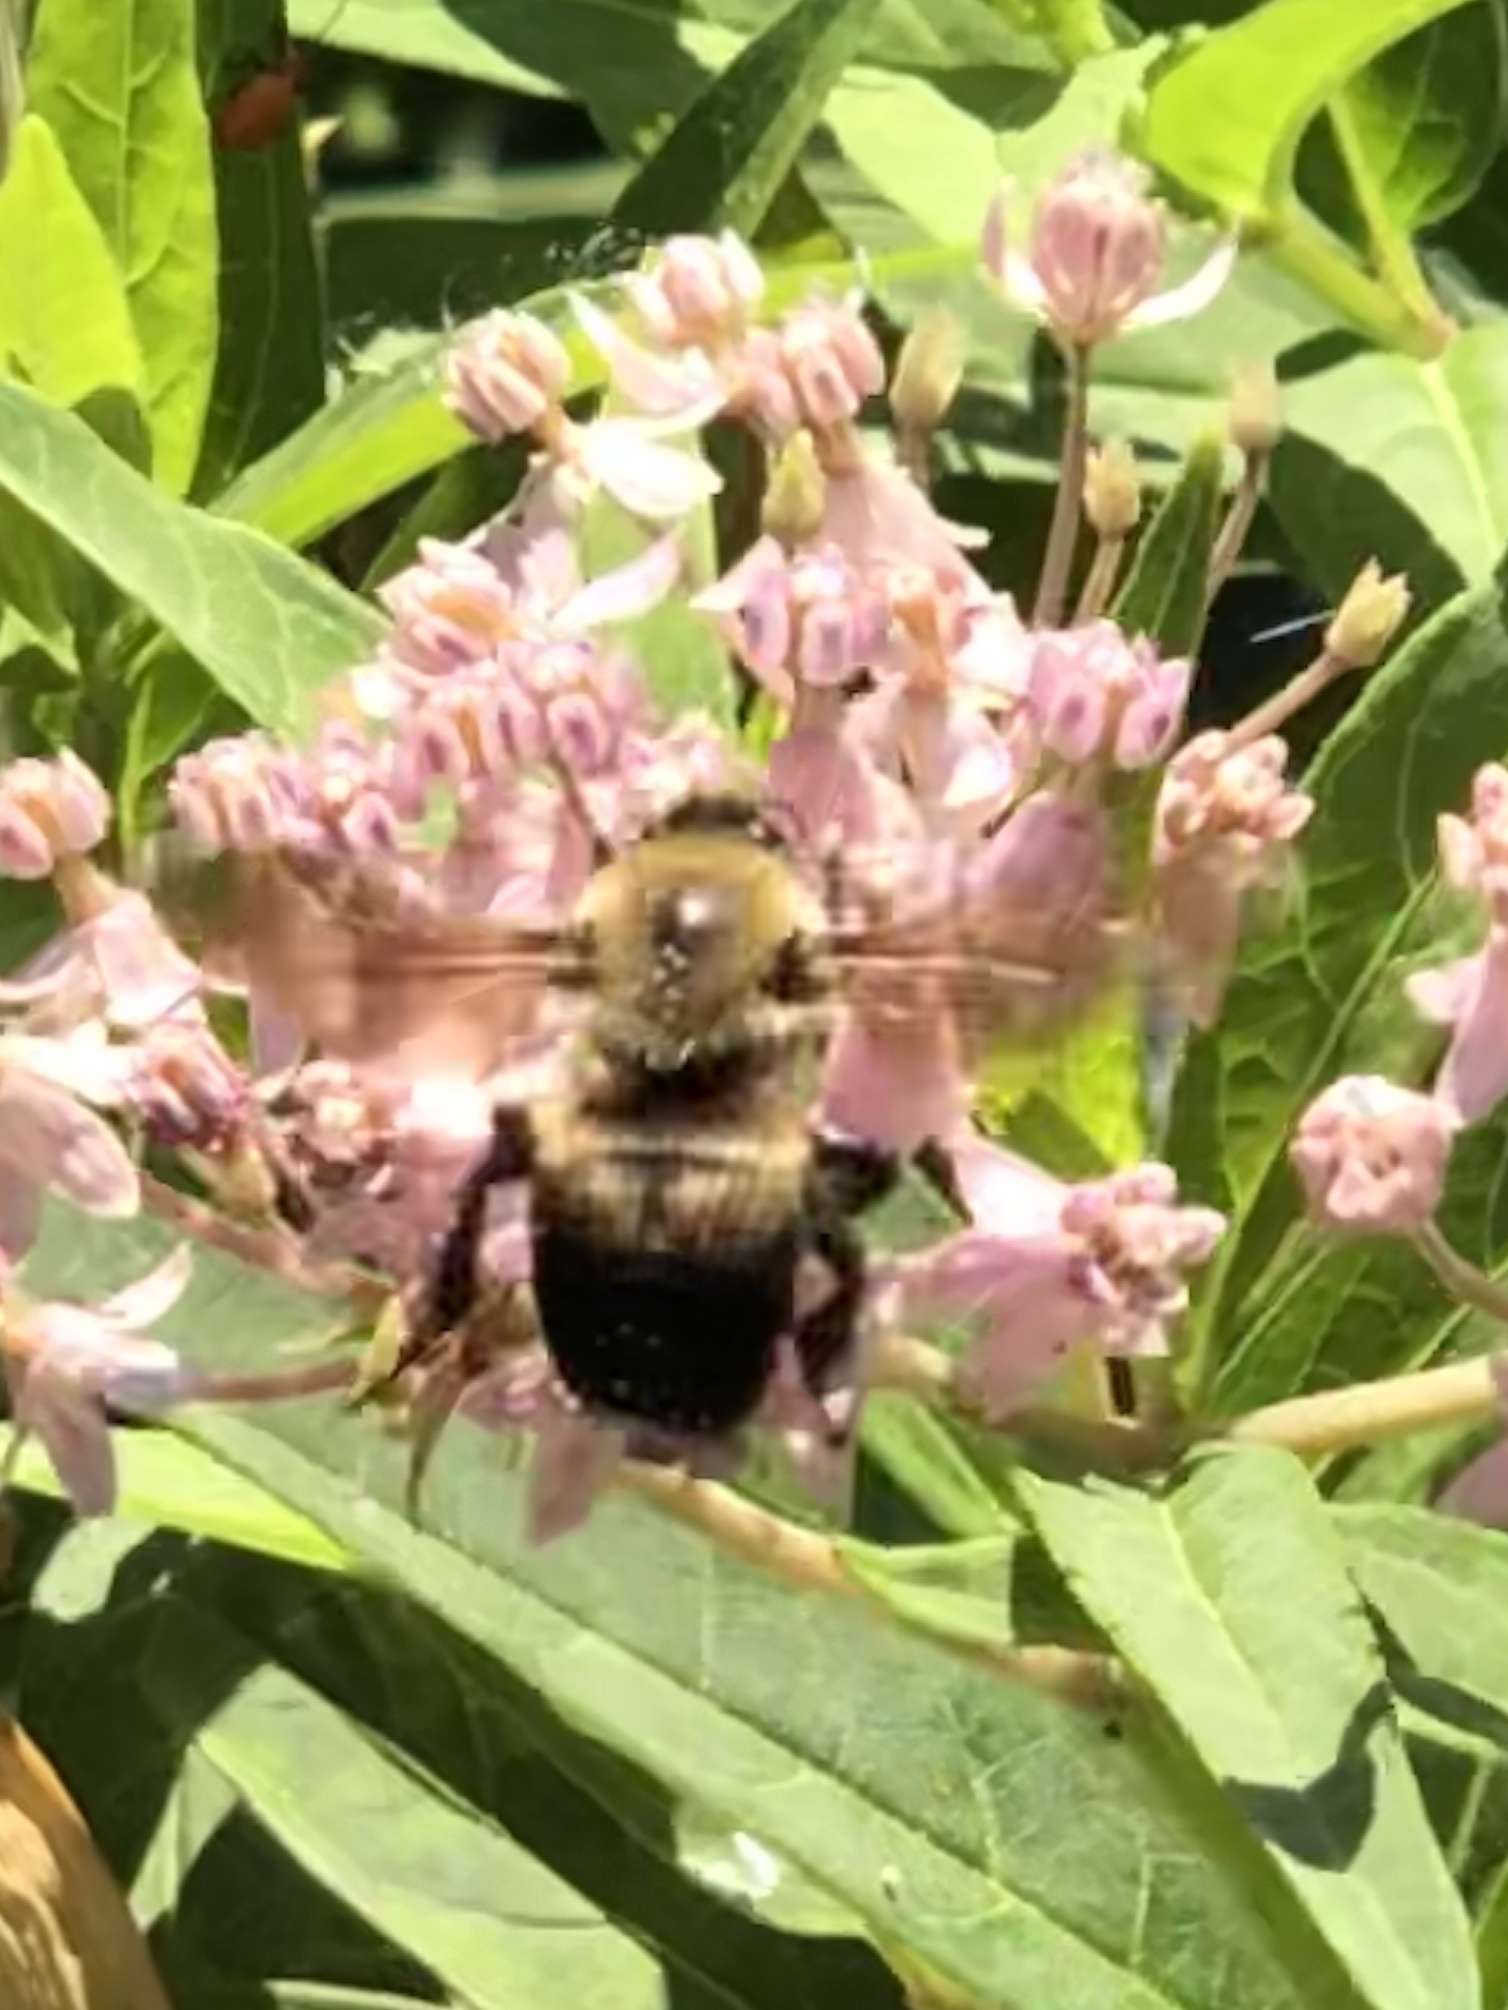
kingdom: Animalia
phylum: Arthropoda
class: Insecta
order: Hymenoptera
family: Apidae
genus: Bombus
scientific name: Bombus griseocollis
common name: Brown-belted bumble bee
